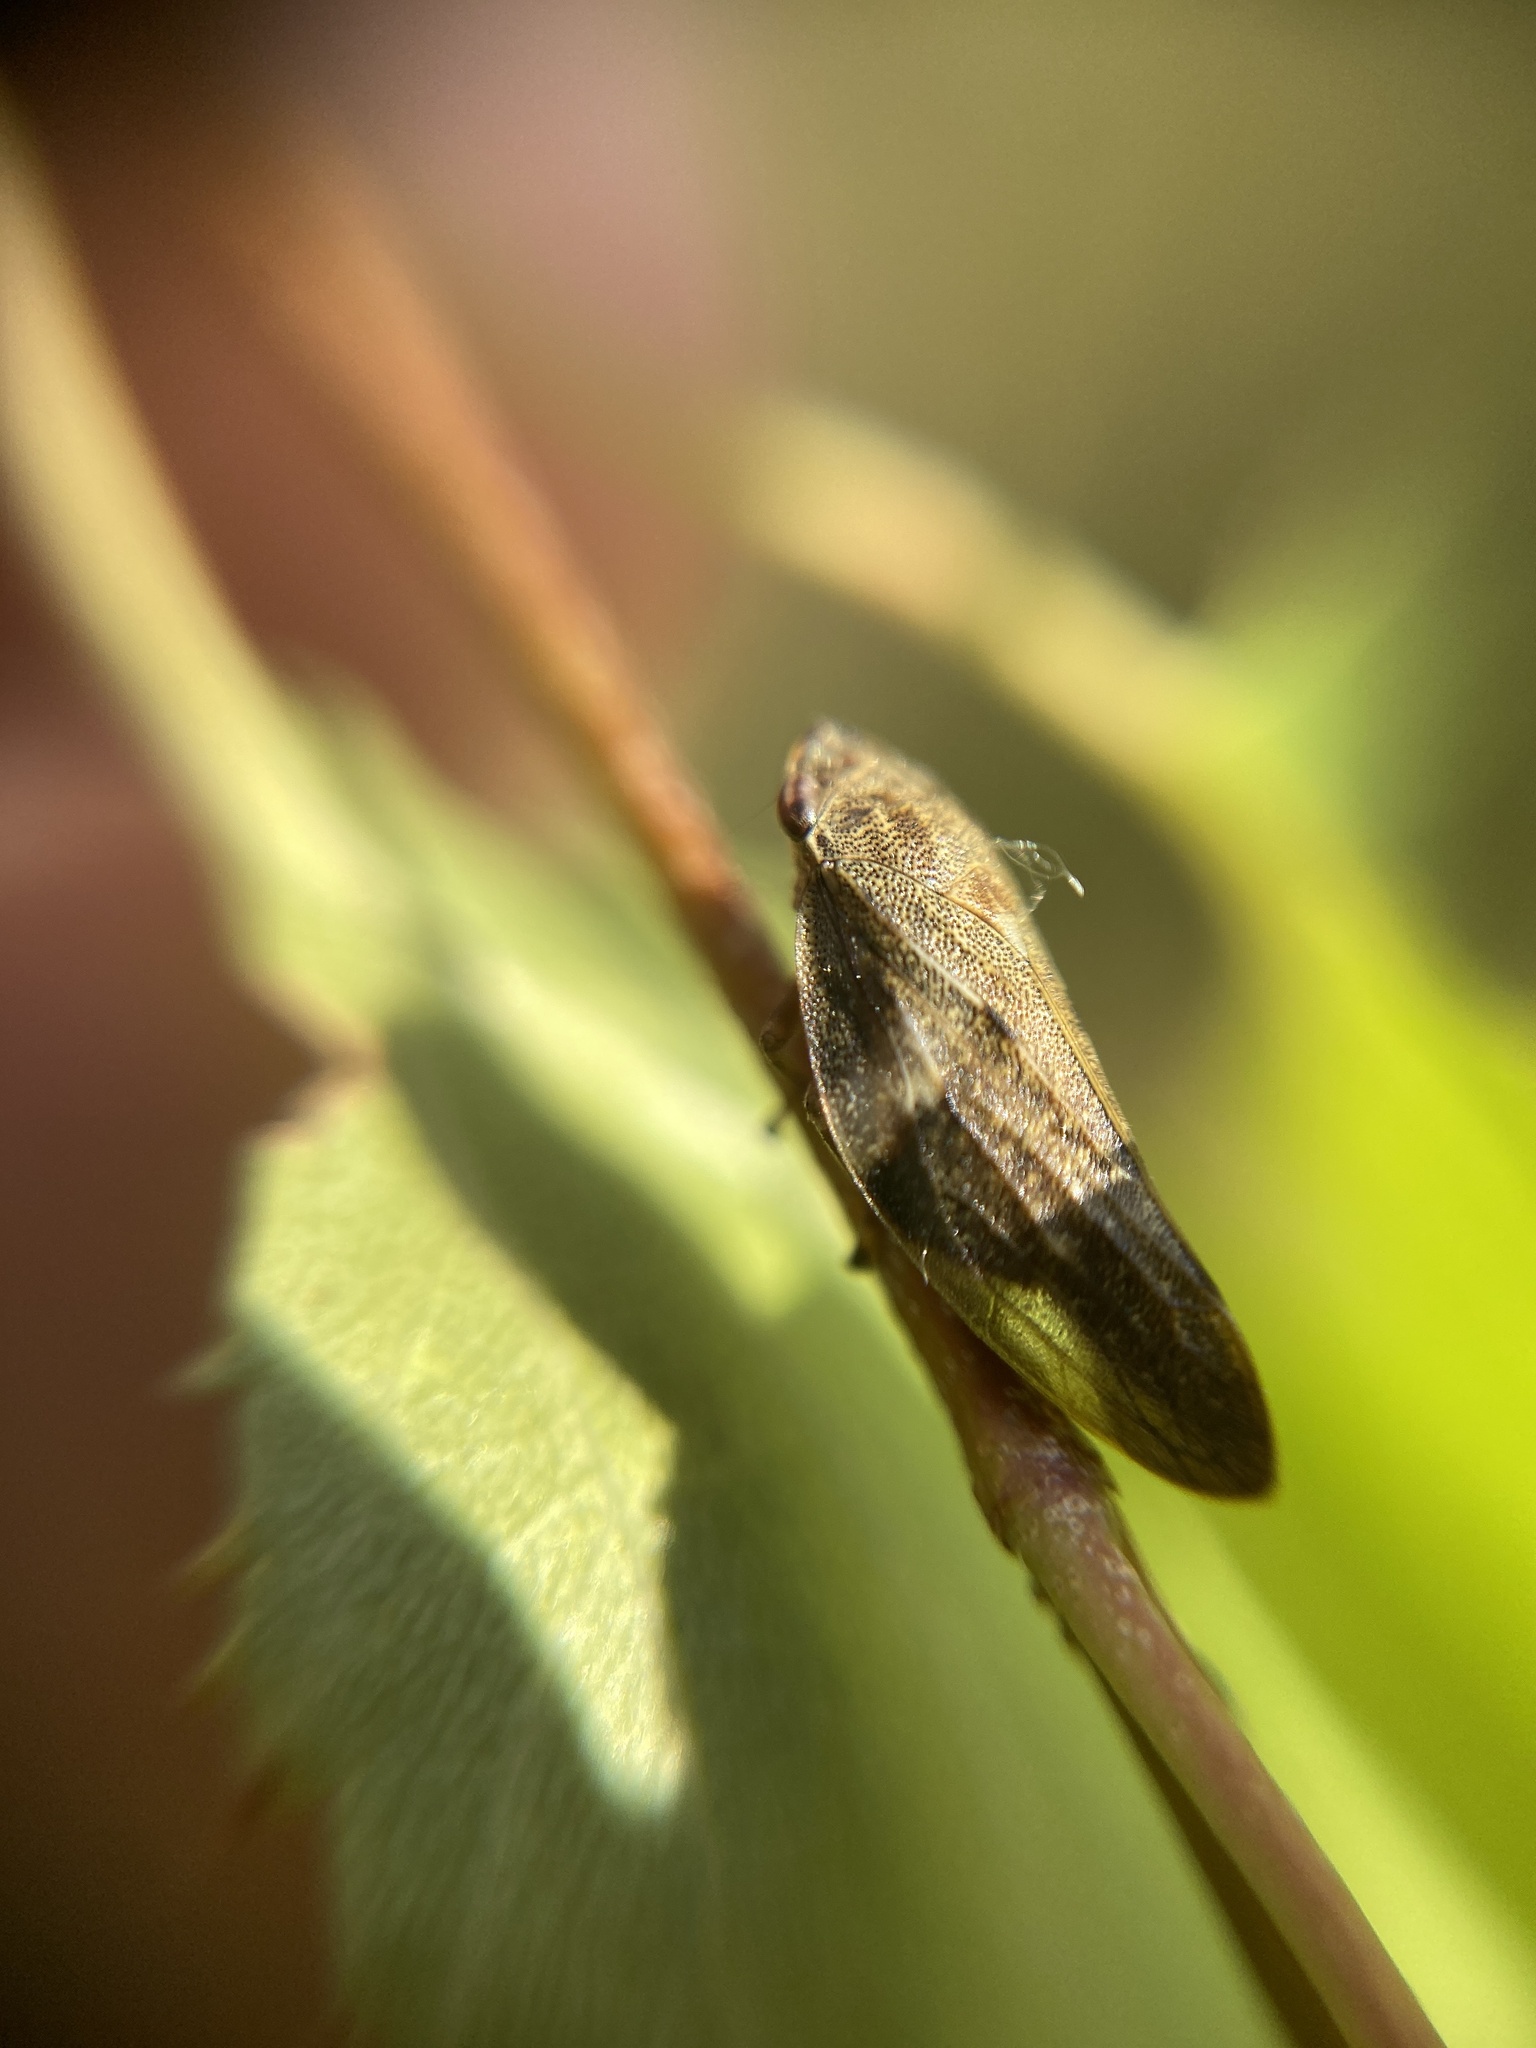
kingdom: Animalia
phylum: Arthropoda
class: Insecta
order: Hemiptera
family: Aphrophoridae
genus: Aphrophora
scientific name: Aphrophora alni
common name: European alder spittlebug
